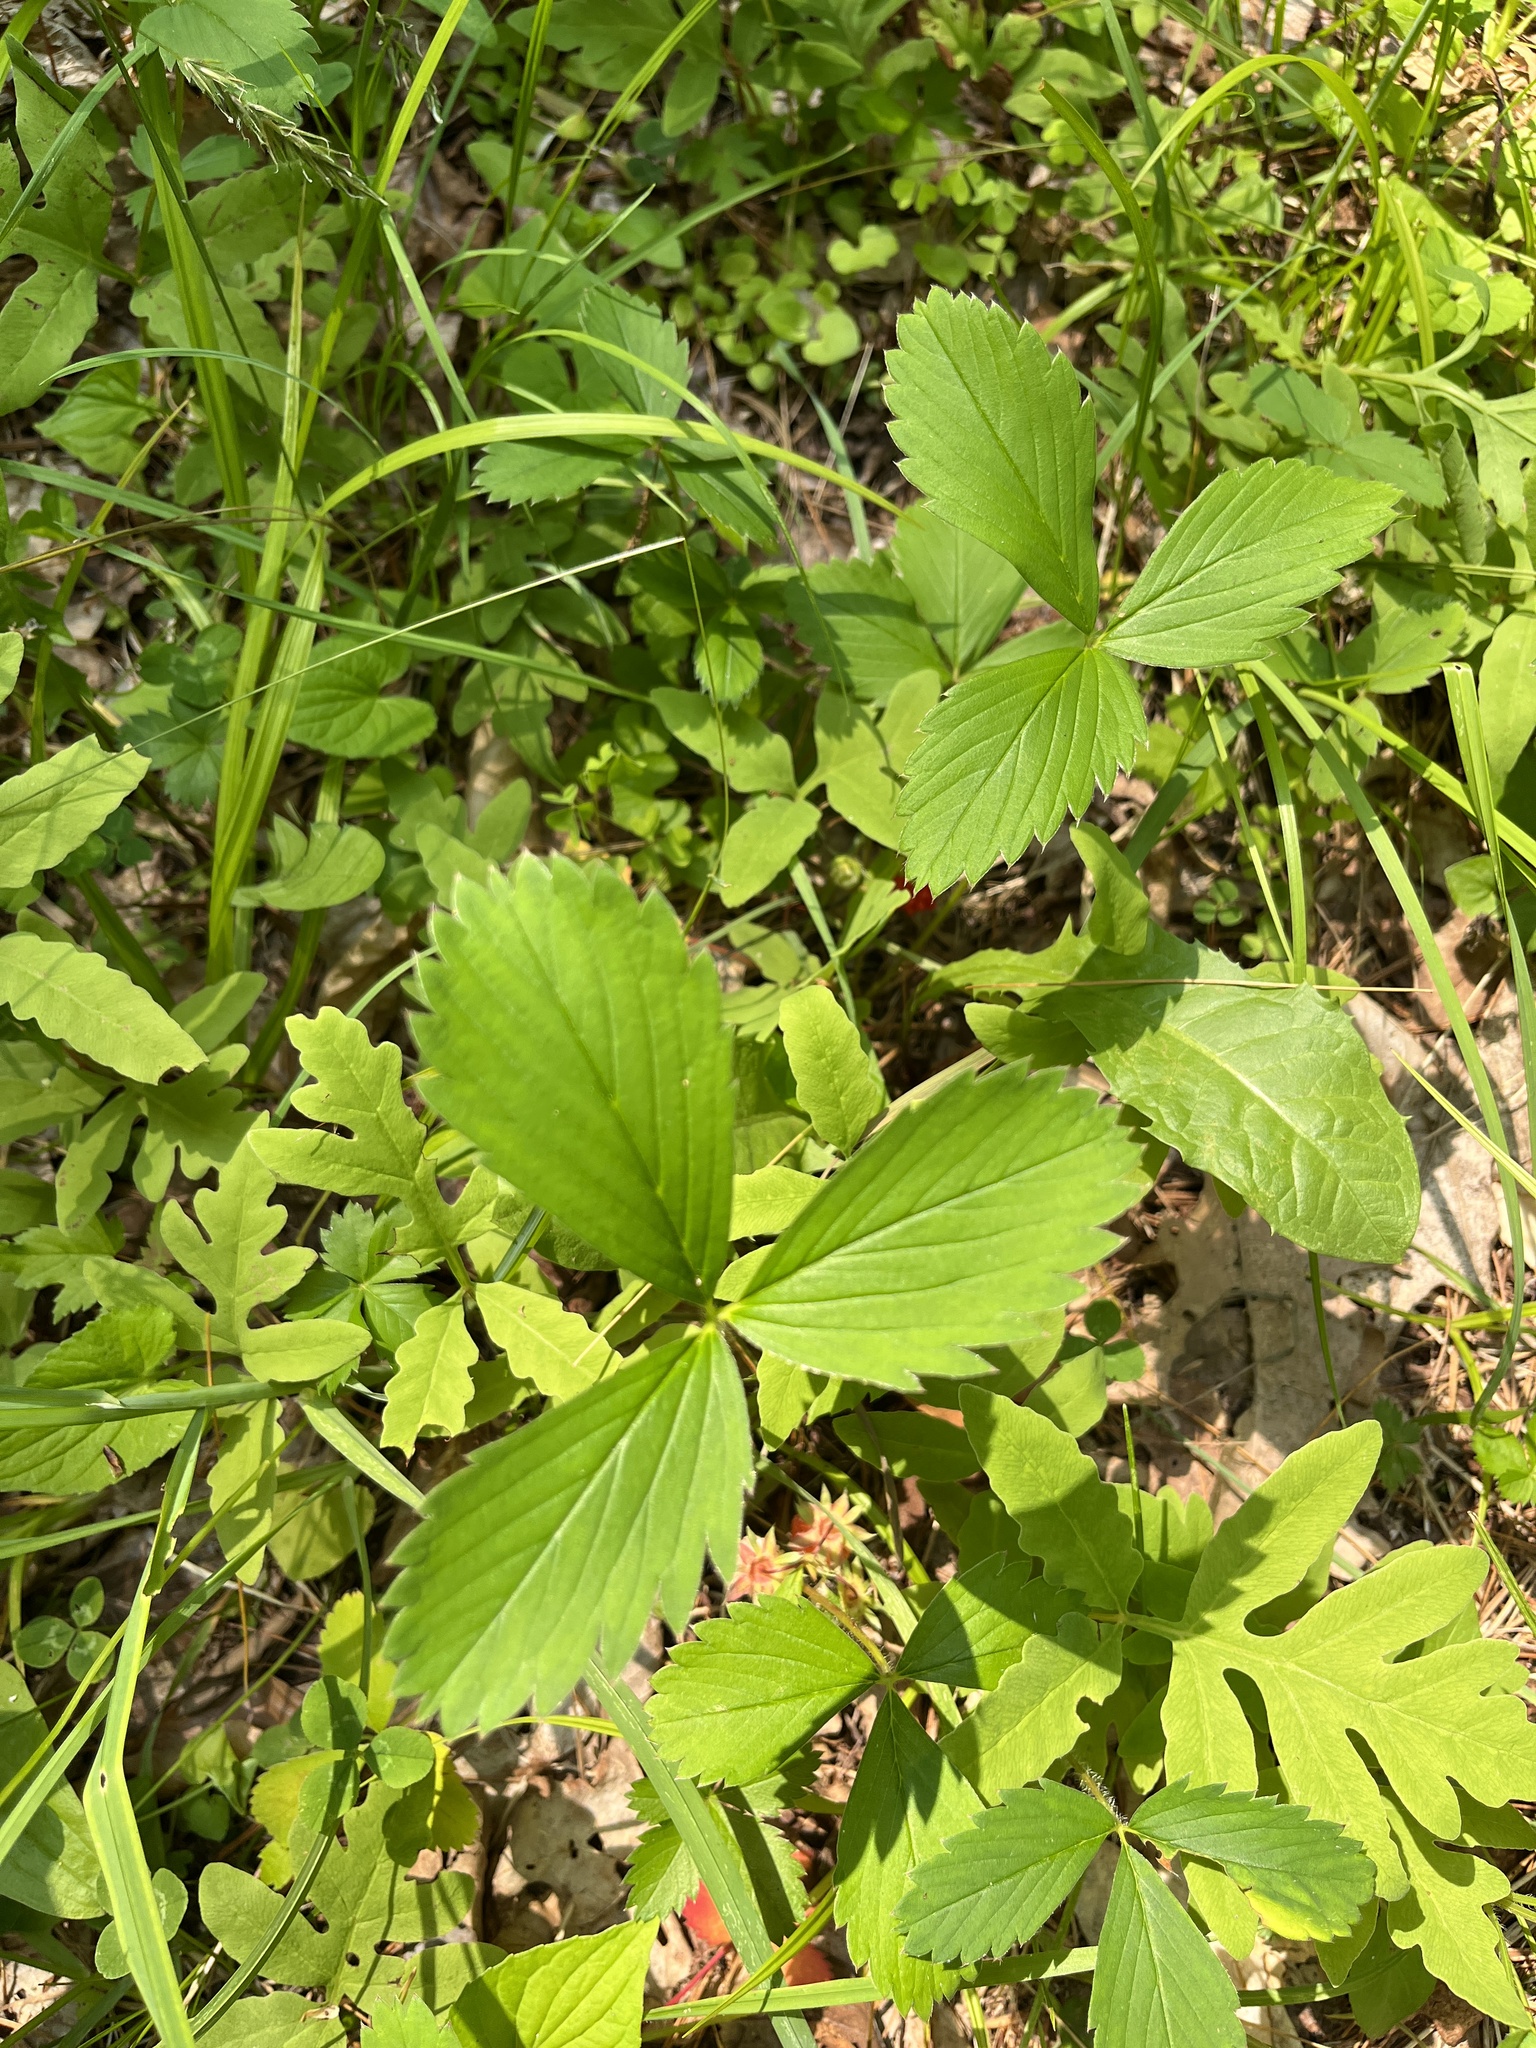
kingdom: Plantae
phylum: Tracheophyta
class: Magnoliopsida
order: Rosales
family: Rosaceae
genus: Fragaria
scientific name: Fragaria virginiana
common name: Thickleaved wild strawberry
